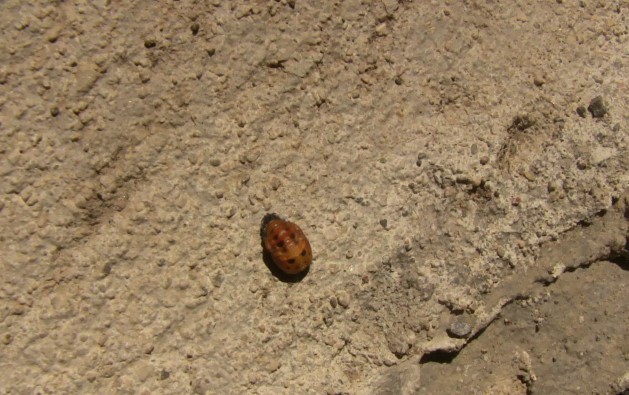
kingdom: Animalia
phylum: Arthropoda
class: Insecta
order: Coleoptera
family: Coccinellidae
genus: Harmonia
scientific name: Harmonia axyridis
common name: Harlequin ladybird
